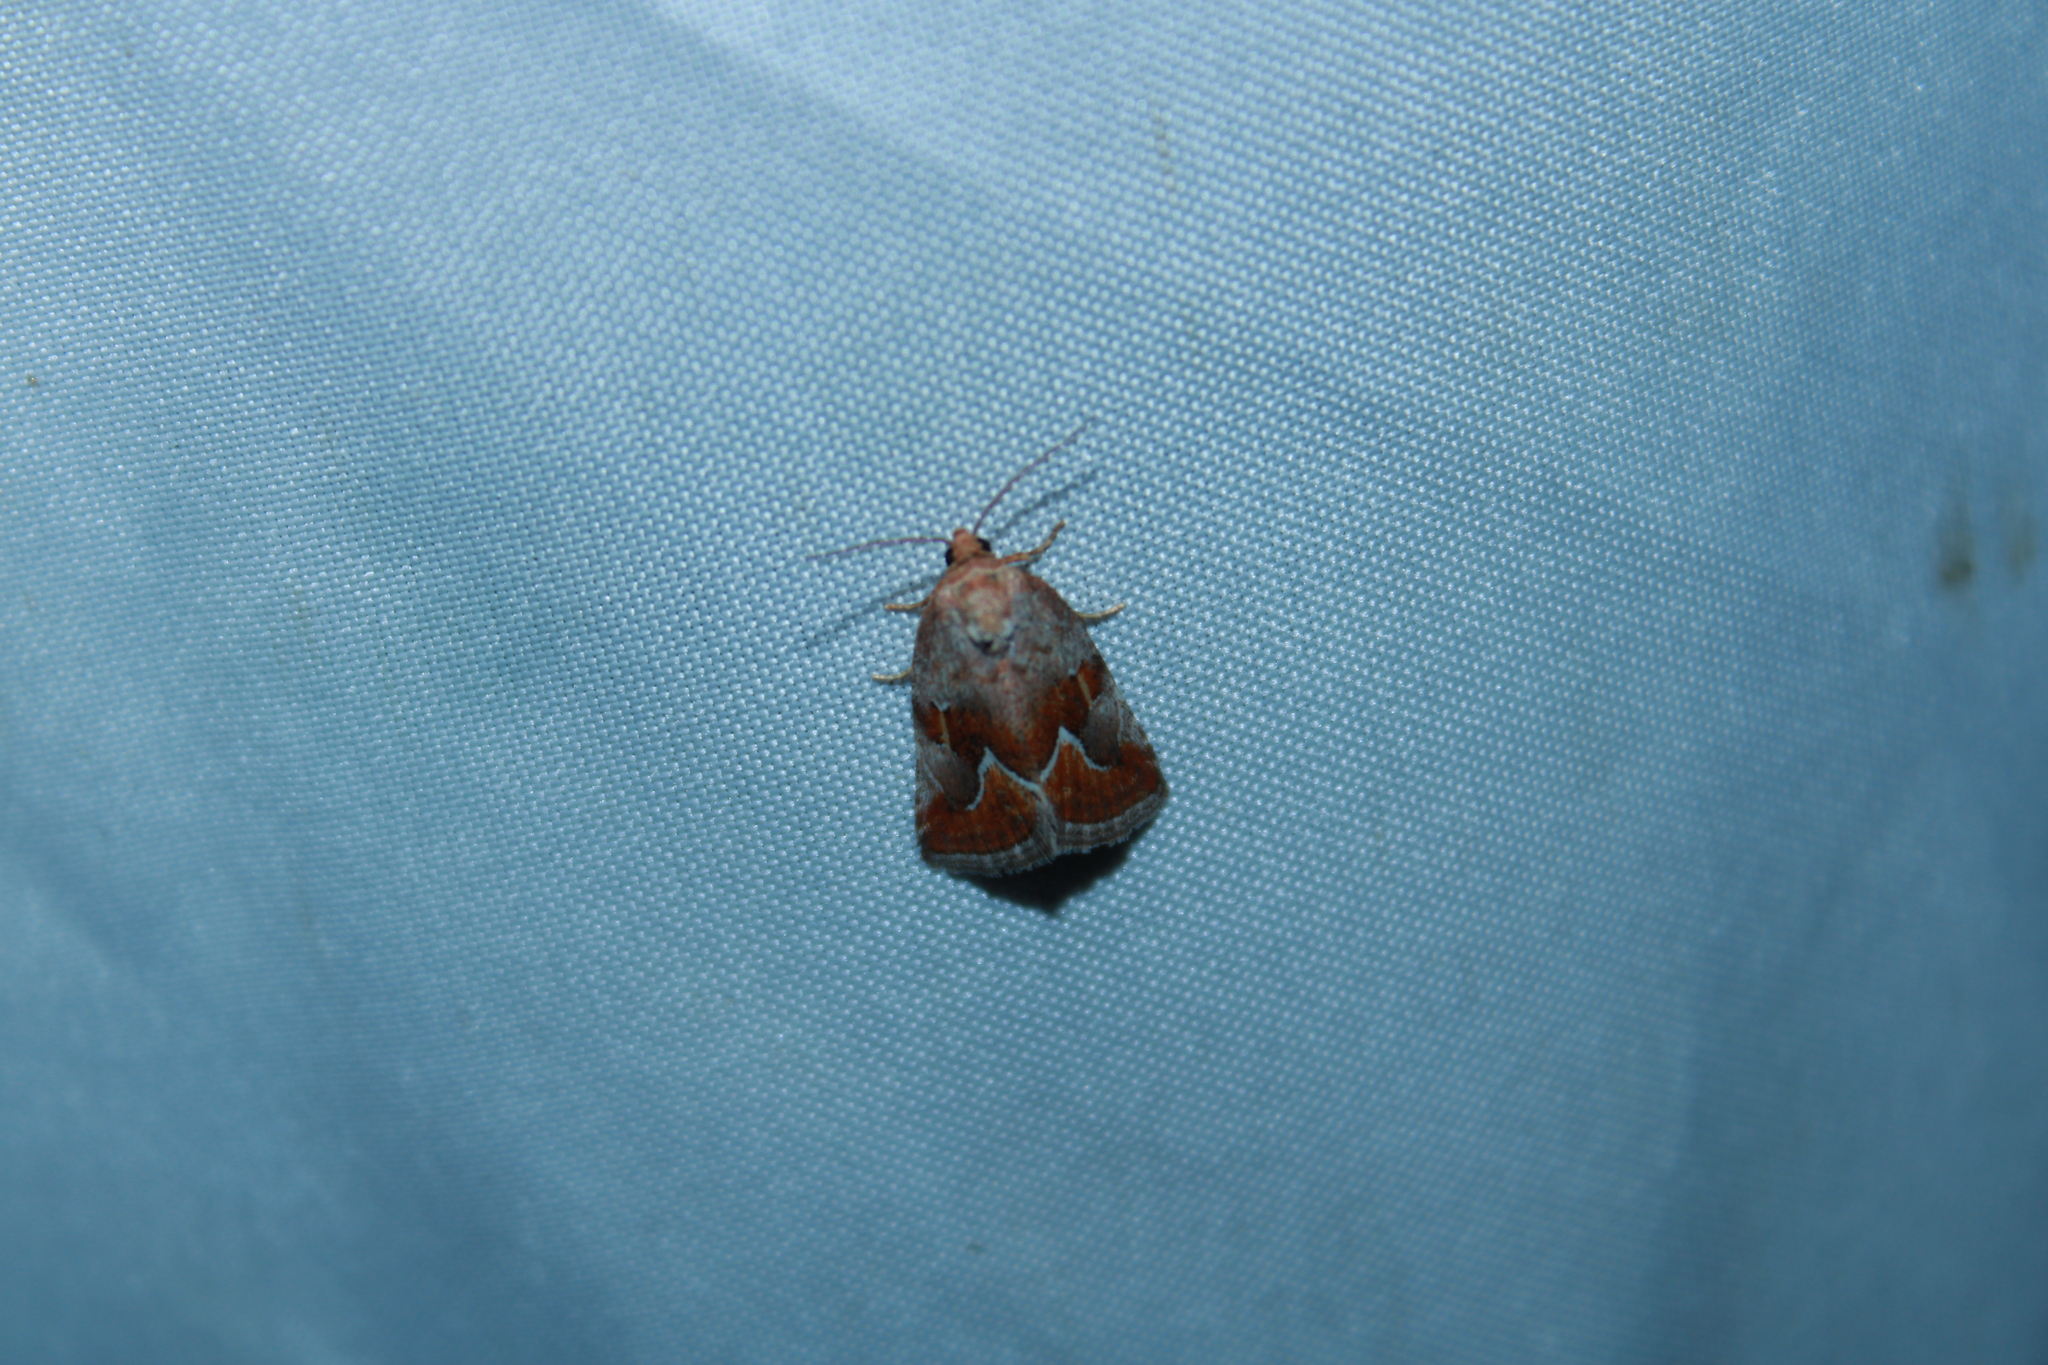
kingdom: Animalia
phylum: Arthropoda
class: Insecta
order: Lepidoptera
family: Noctuidae
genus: Deltote
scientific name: Deltote bellicula
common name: Bog glyph
